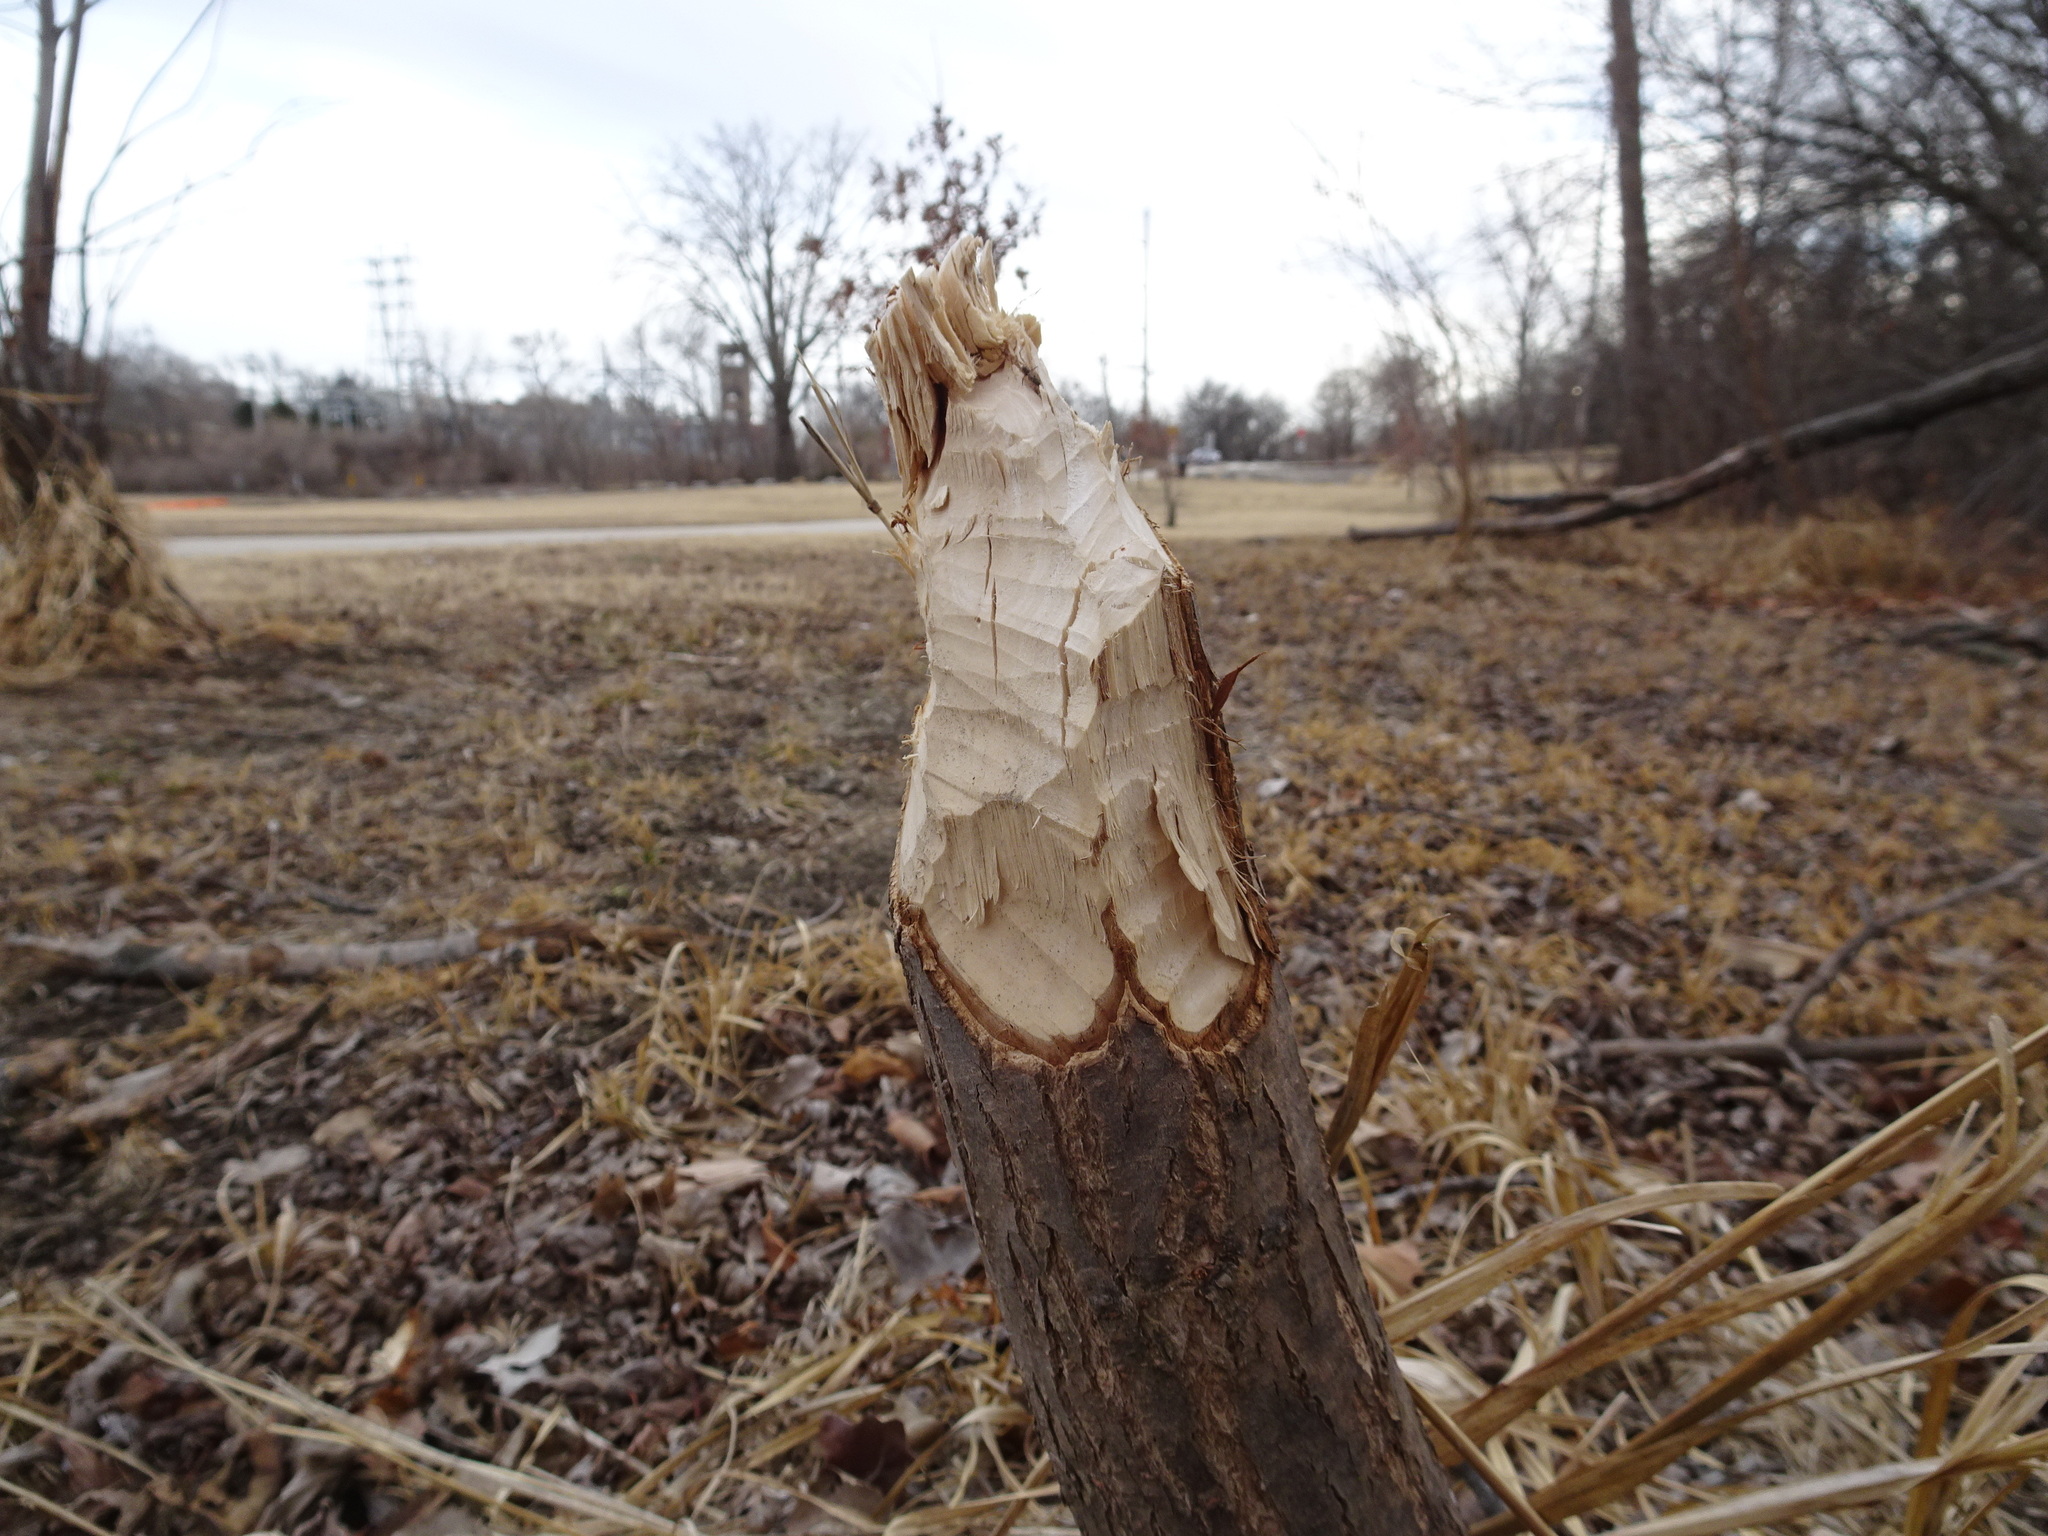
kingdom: Animalia
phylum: Chordata
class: Mammalia
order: Rodentia
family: Castoridae
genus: Castor
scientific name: Castor canadensis
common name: American beaver
